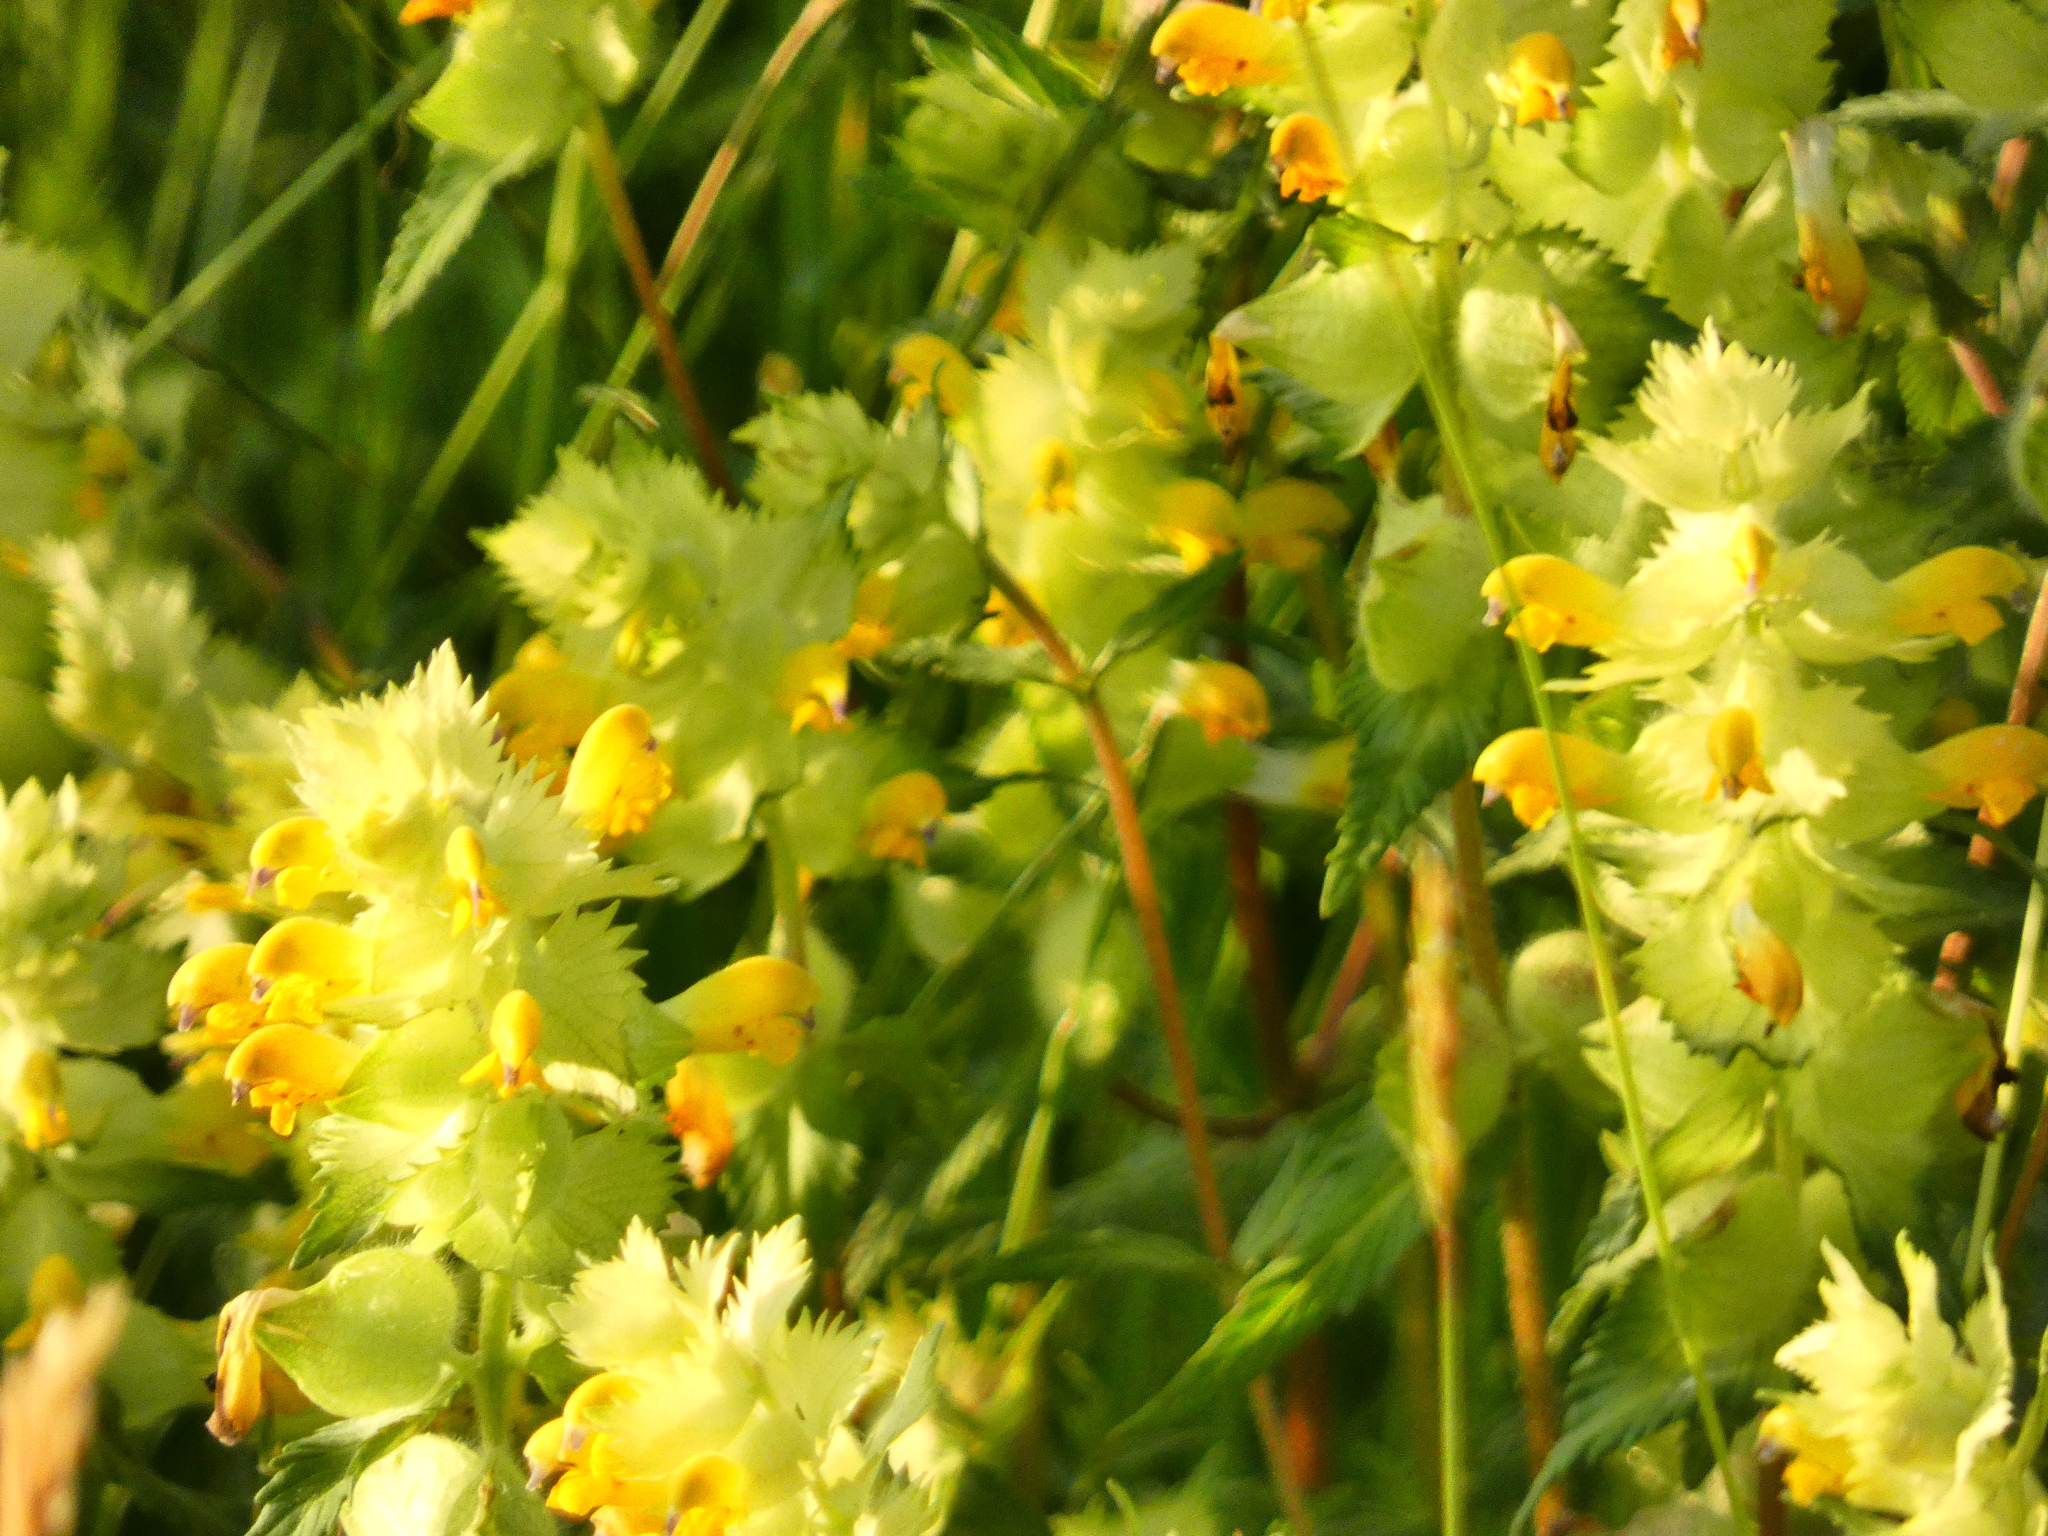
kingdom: Plantae
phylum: Tracheophyta
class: Magnoliopsida
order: Lamiales
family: Orobanchaceae
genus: Rhinanthus
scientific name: Rhinanthus alectorolophus
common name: Greater yellow-rattle
